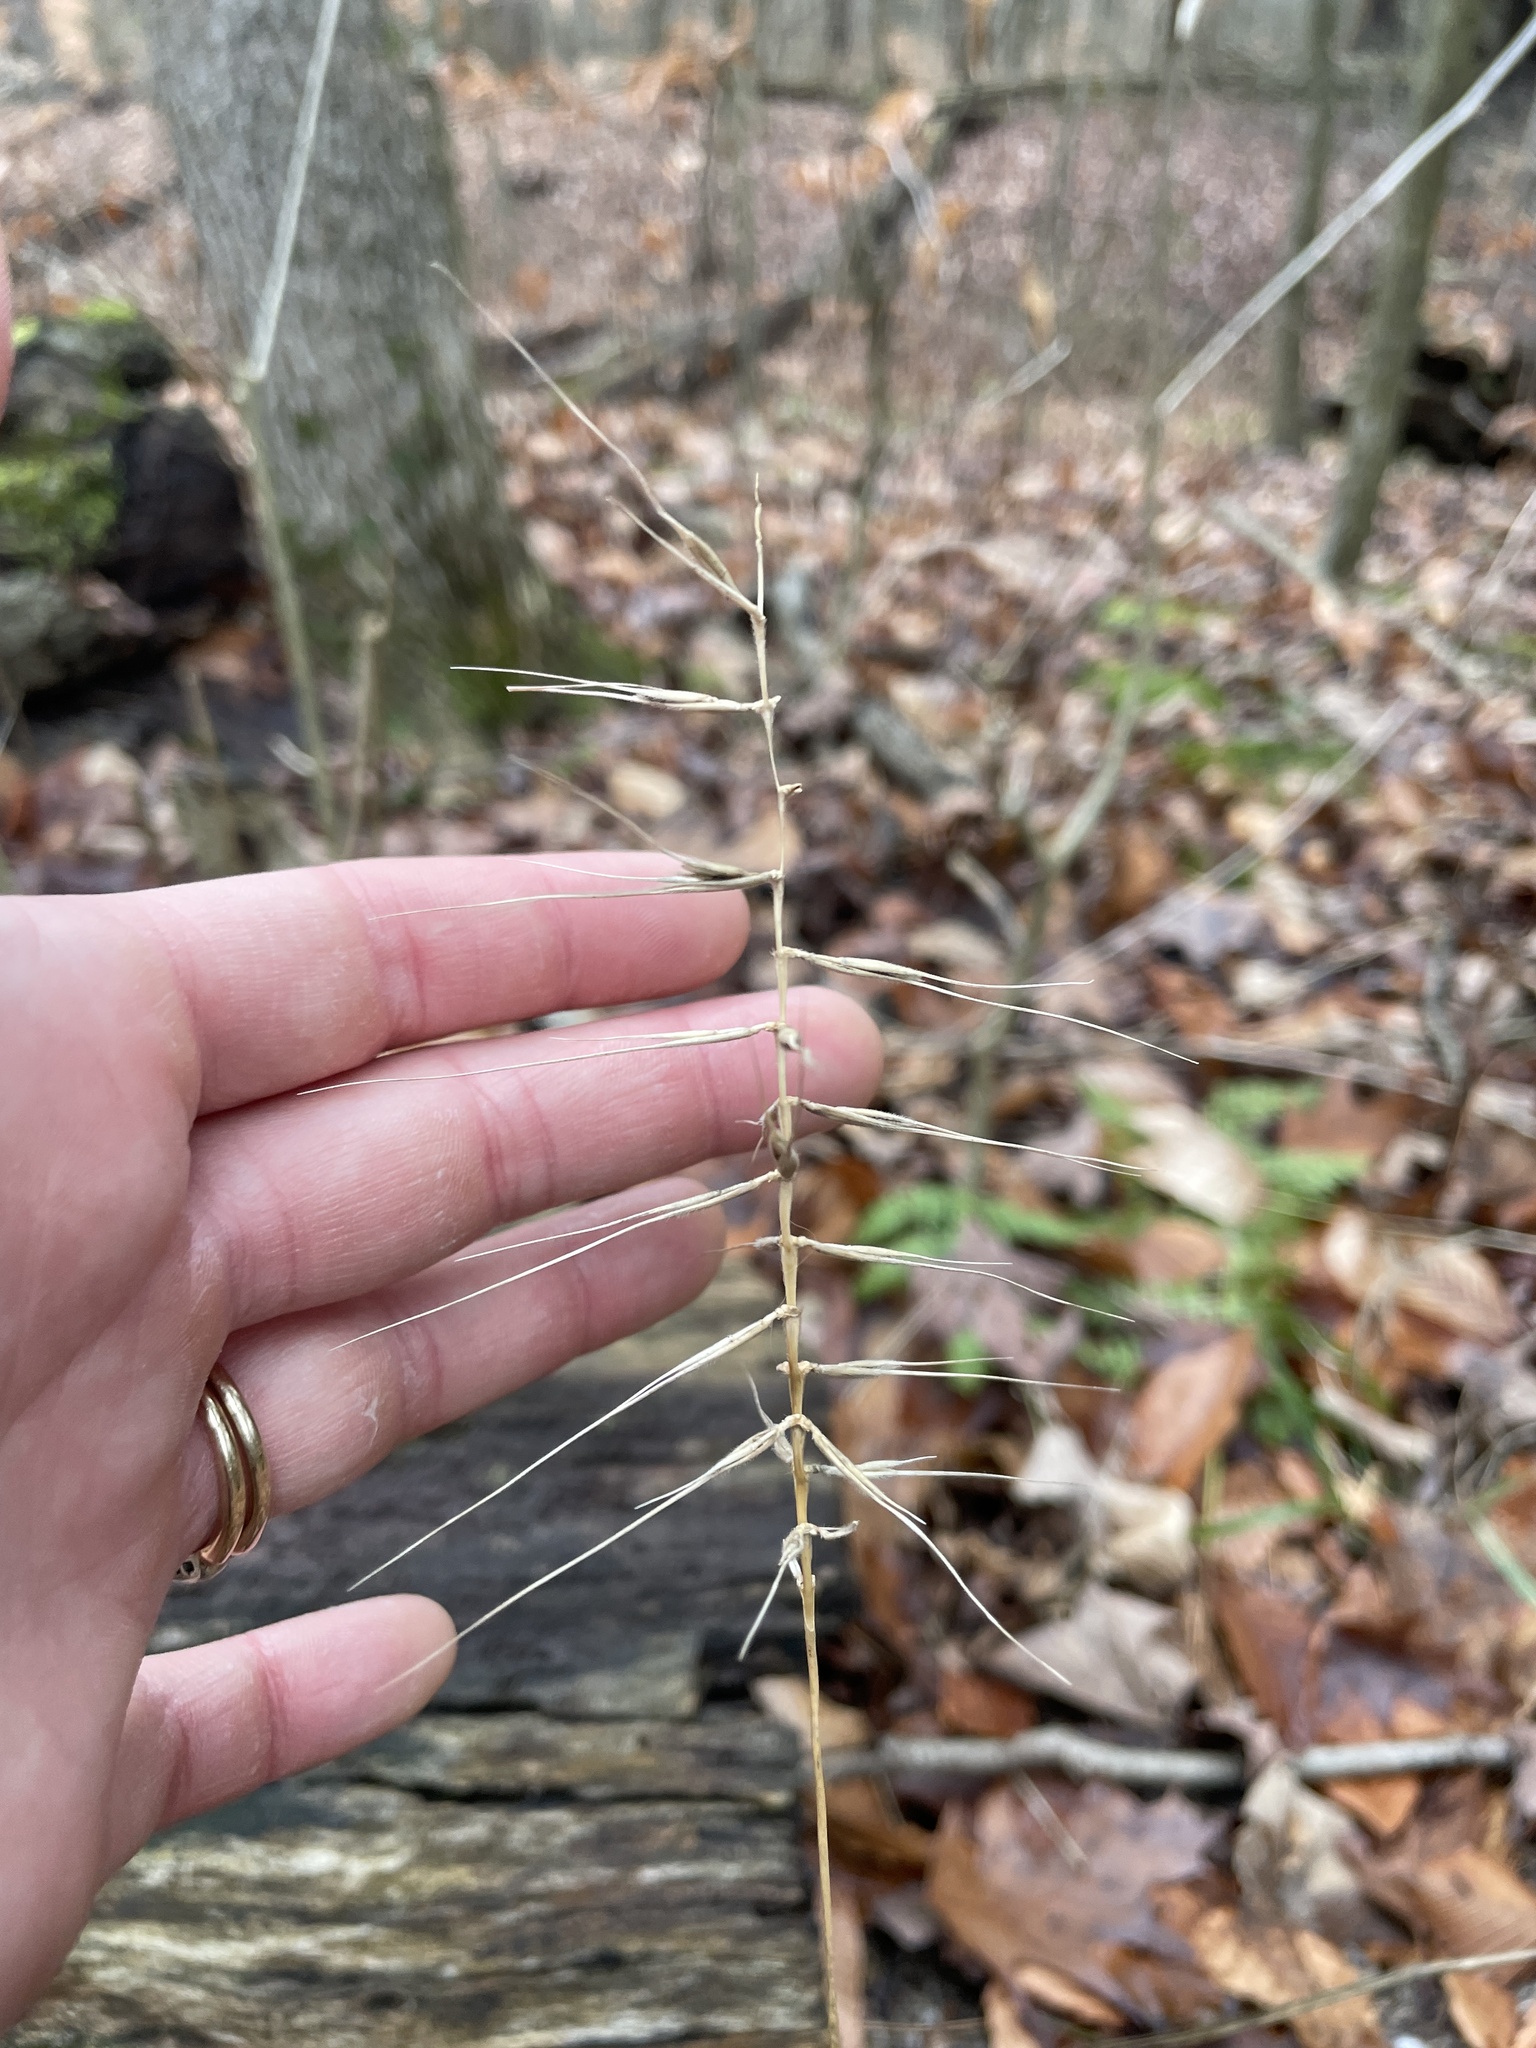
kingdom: Plantae
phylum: Tracheophyta
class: Liliopsida
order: Poales
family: Poaceae
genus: Elymus
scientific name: Elymus hystrix
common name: Bottlebrush grass
